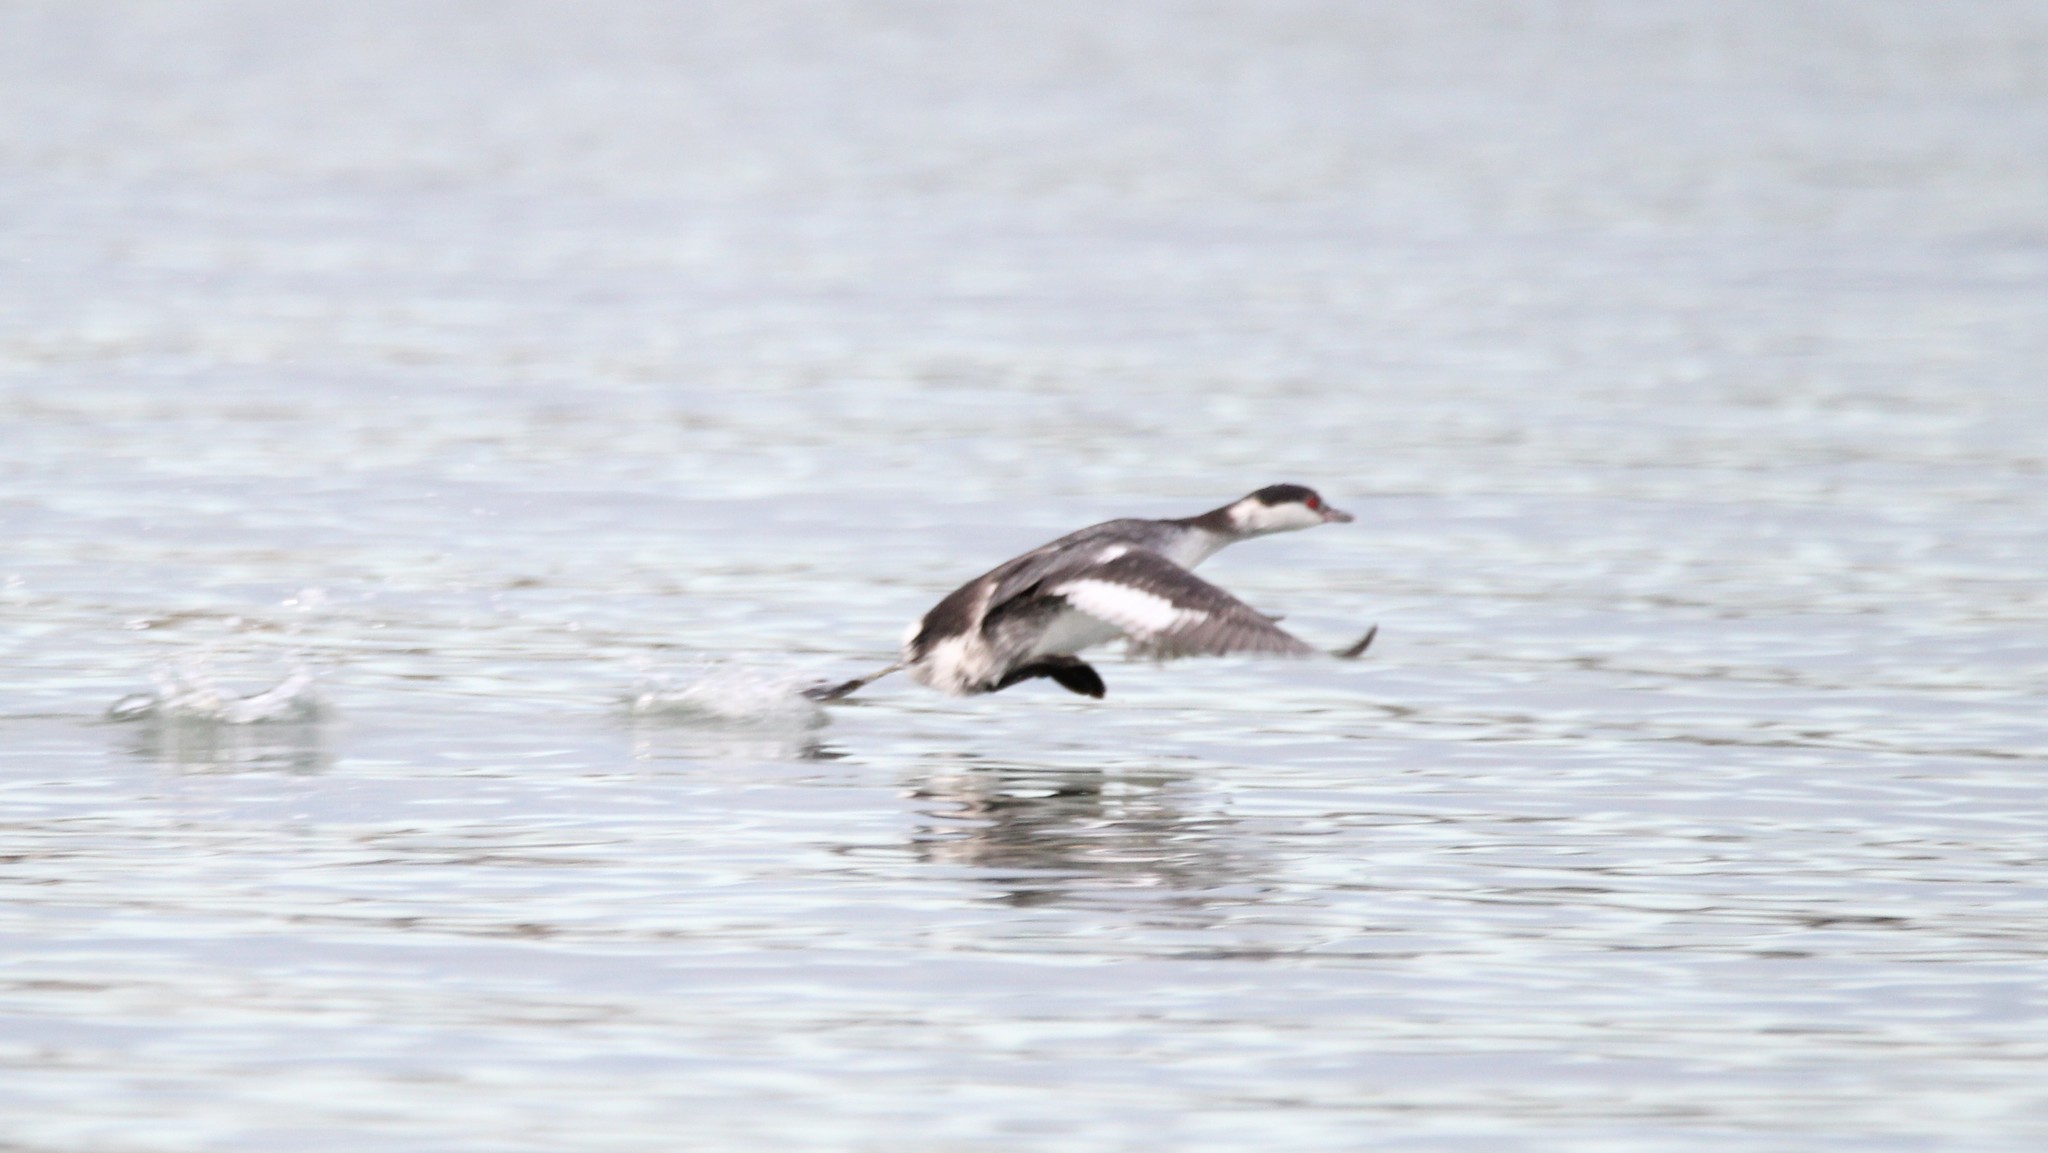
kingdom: Animalia
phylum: Chordata
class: Aves
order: Podicipediformes
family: Podicipedidae
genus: Podiceps
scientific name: Podiceps auritus
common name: Horned grebe
